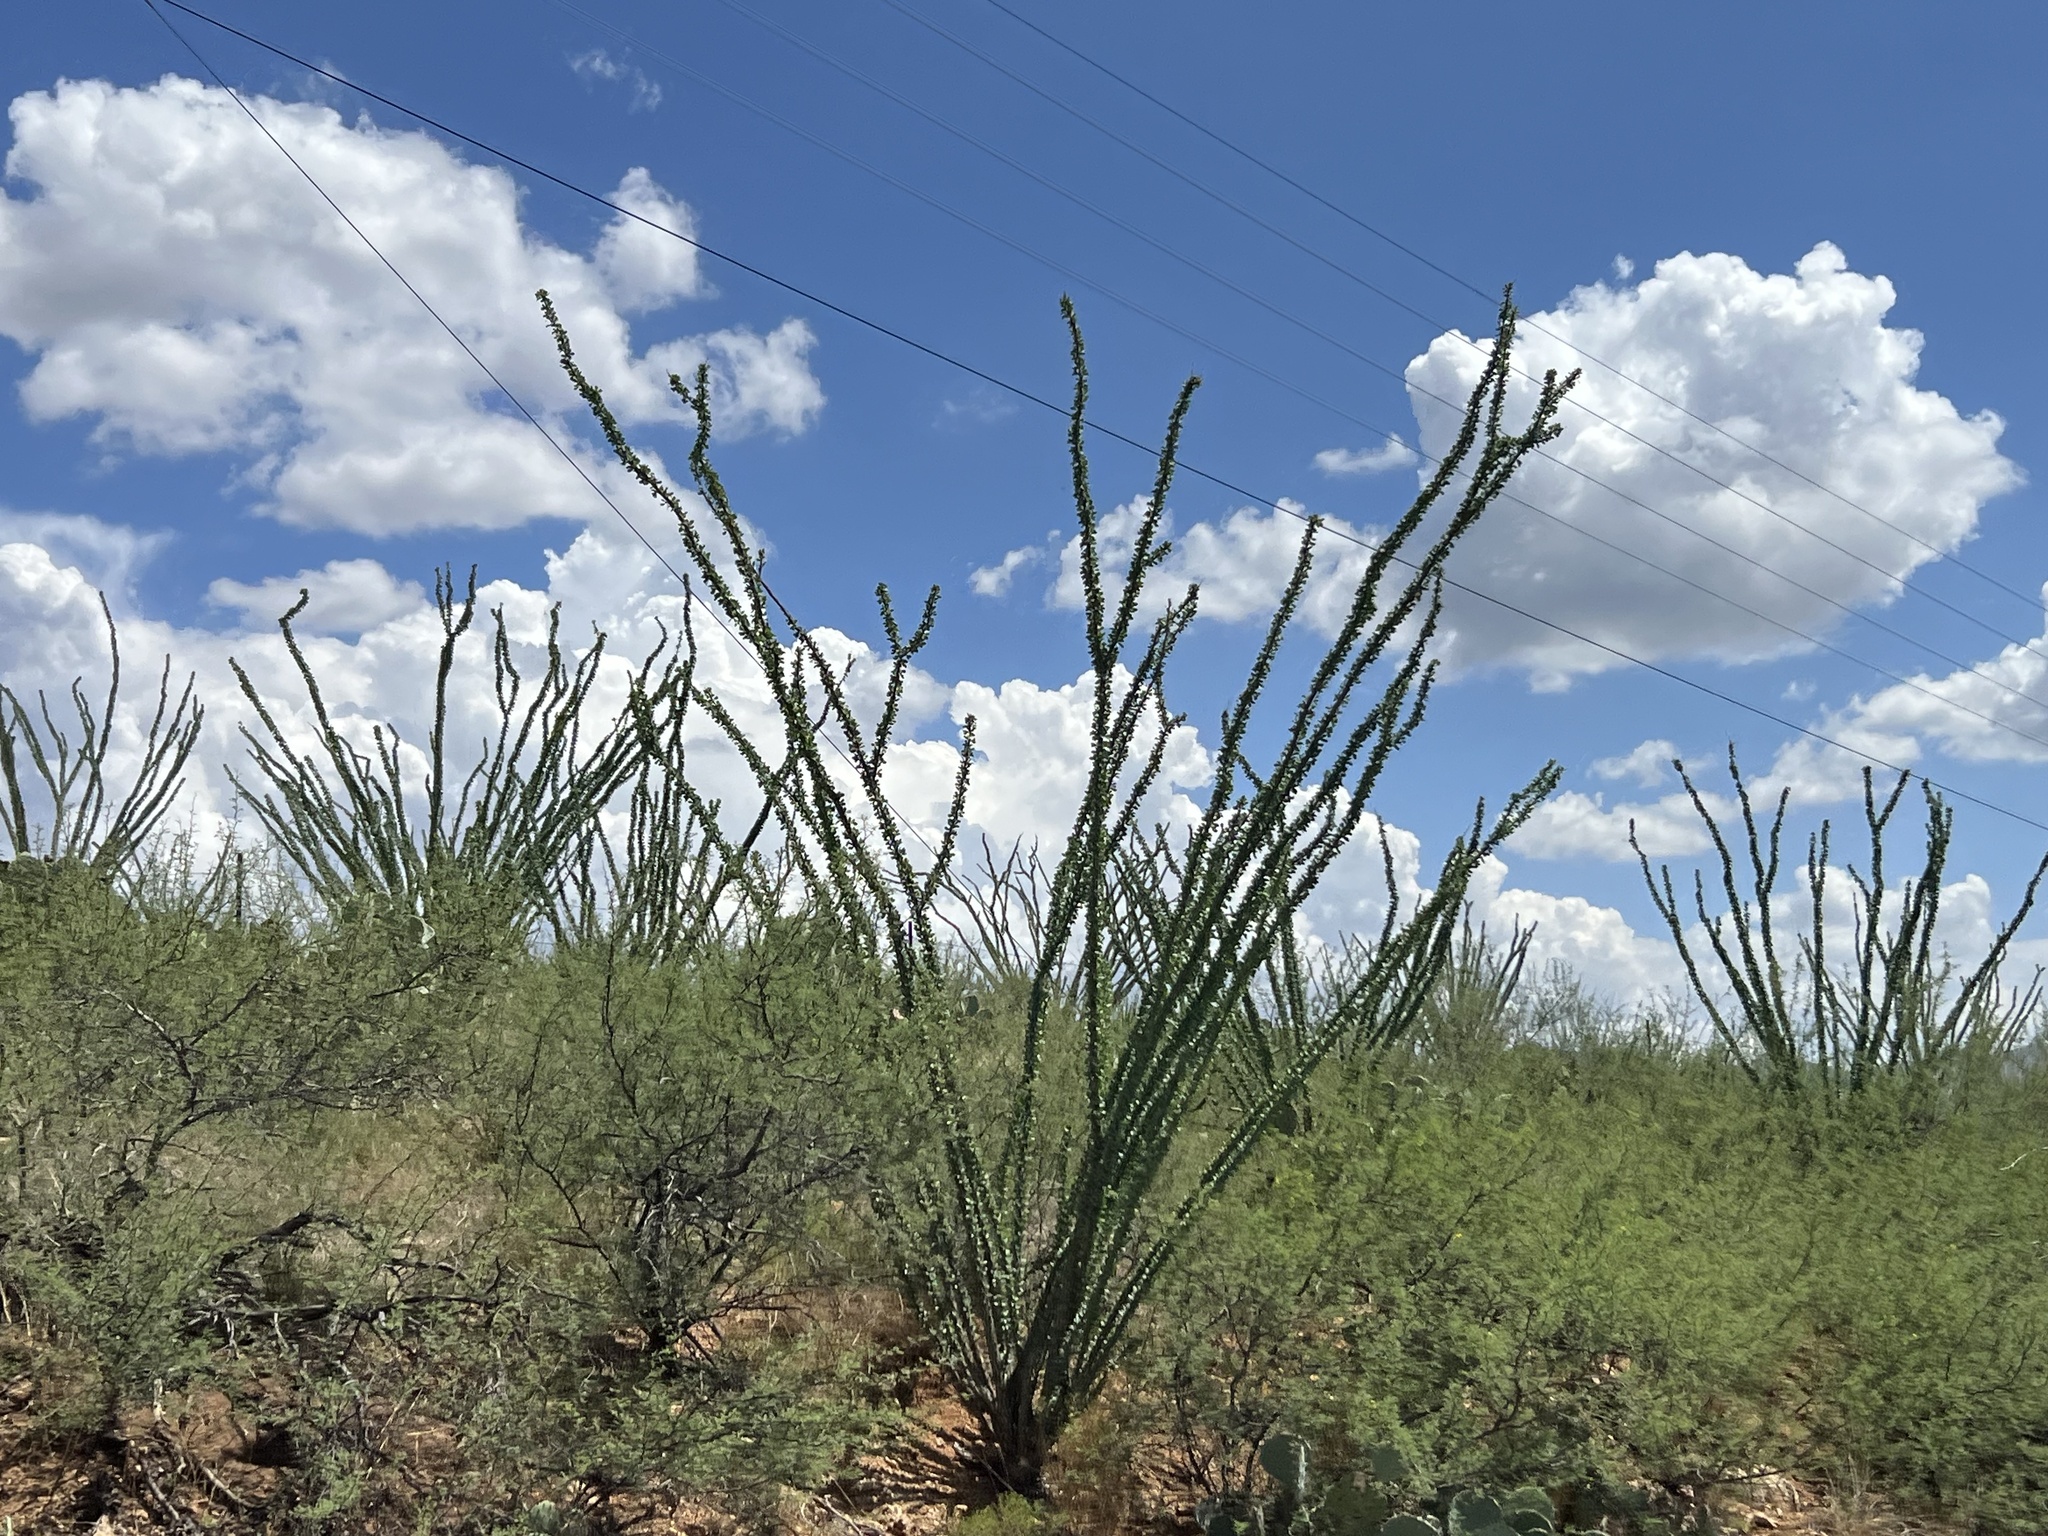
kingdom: Plantae
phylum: Tracheophyta
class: Magnoliopsida
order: Ericales
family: Fouquieriaceae
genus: Fouquieria
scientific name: Fouquieria splendens
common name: Vine-cactus
